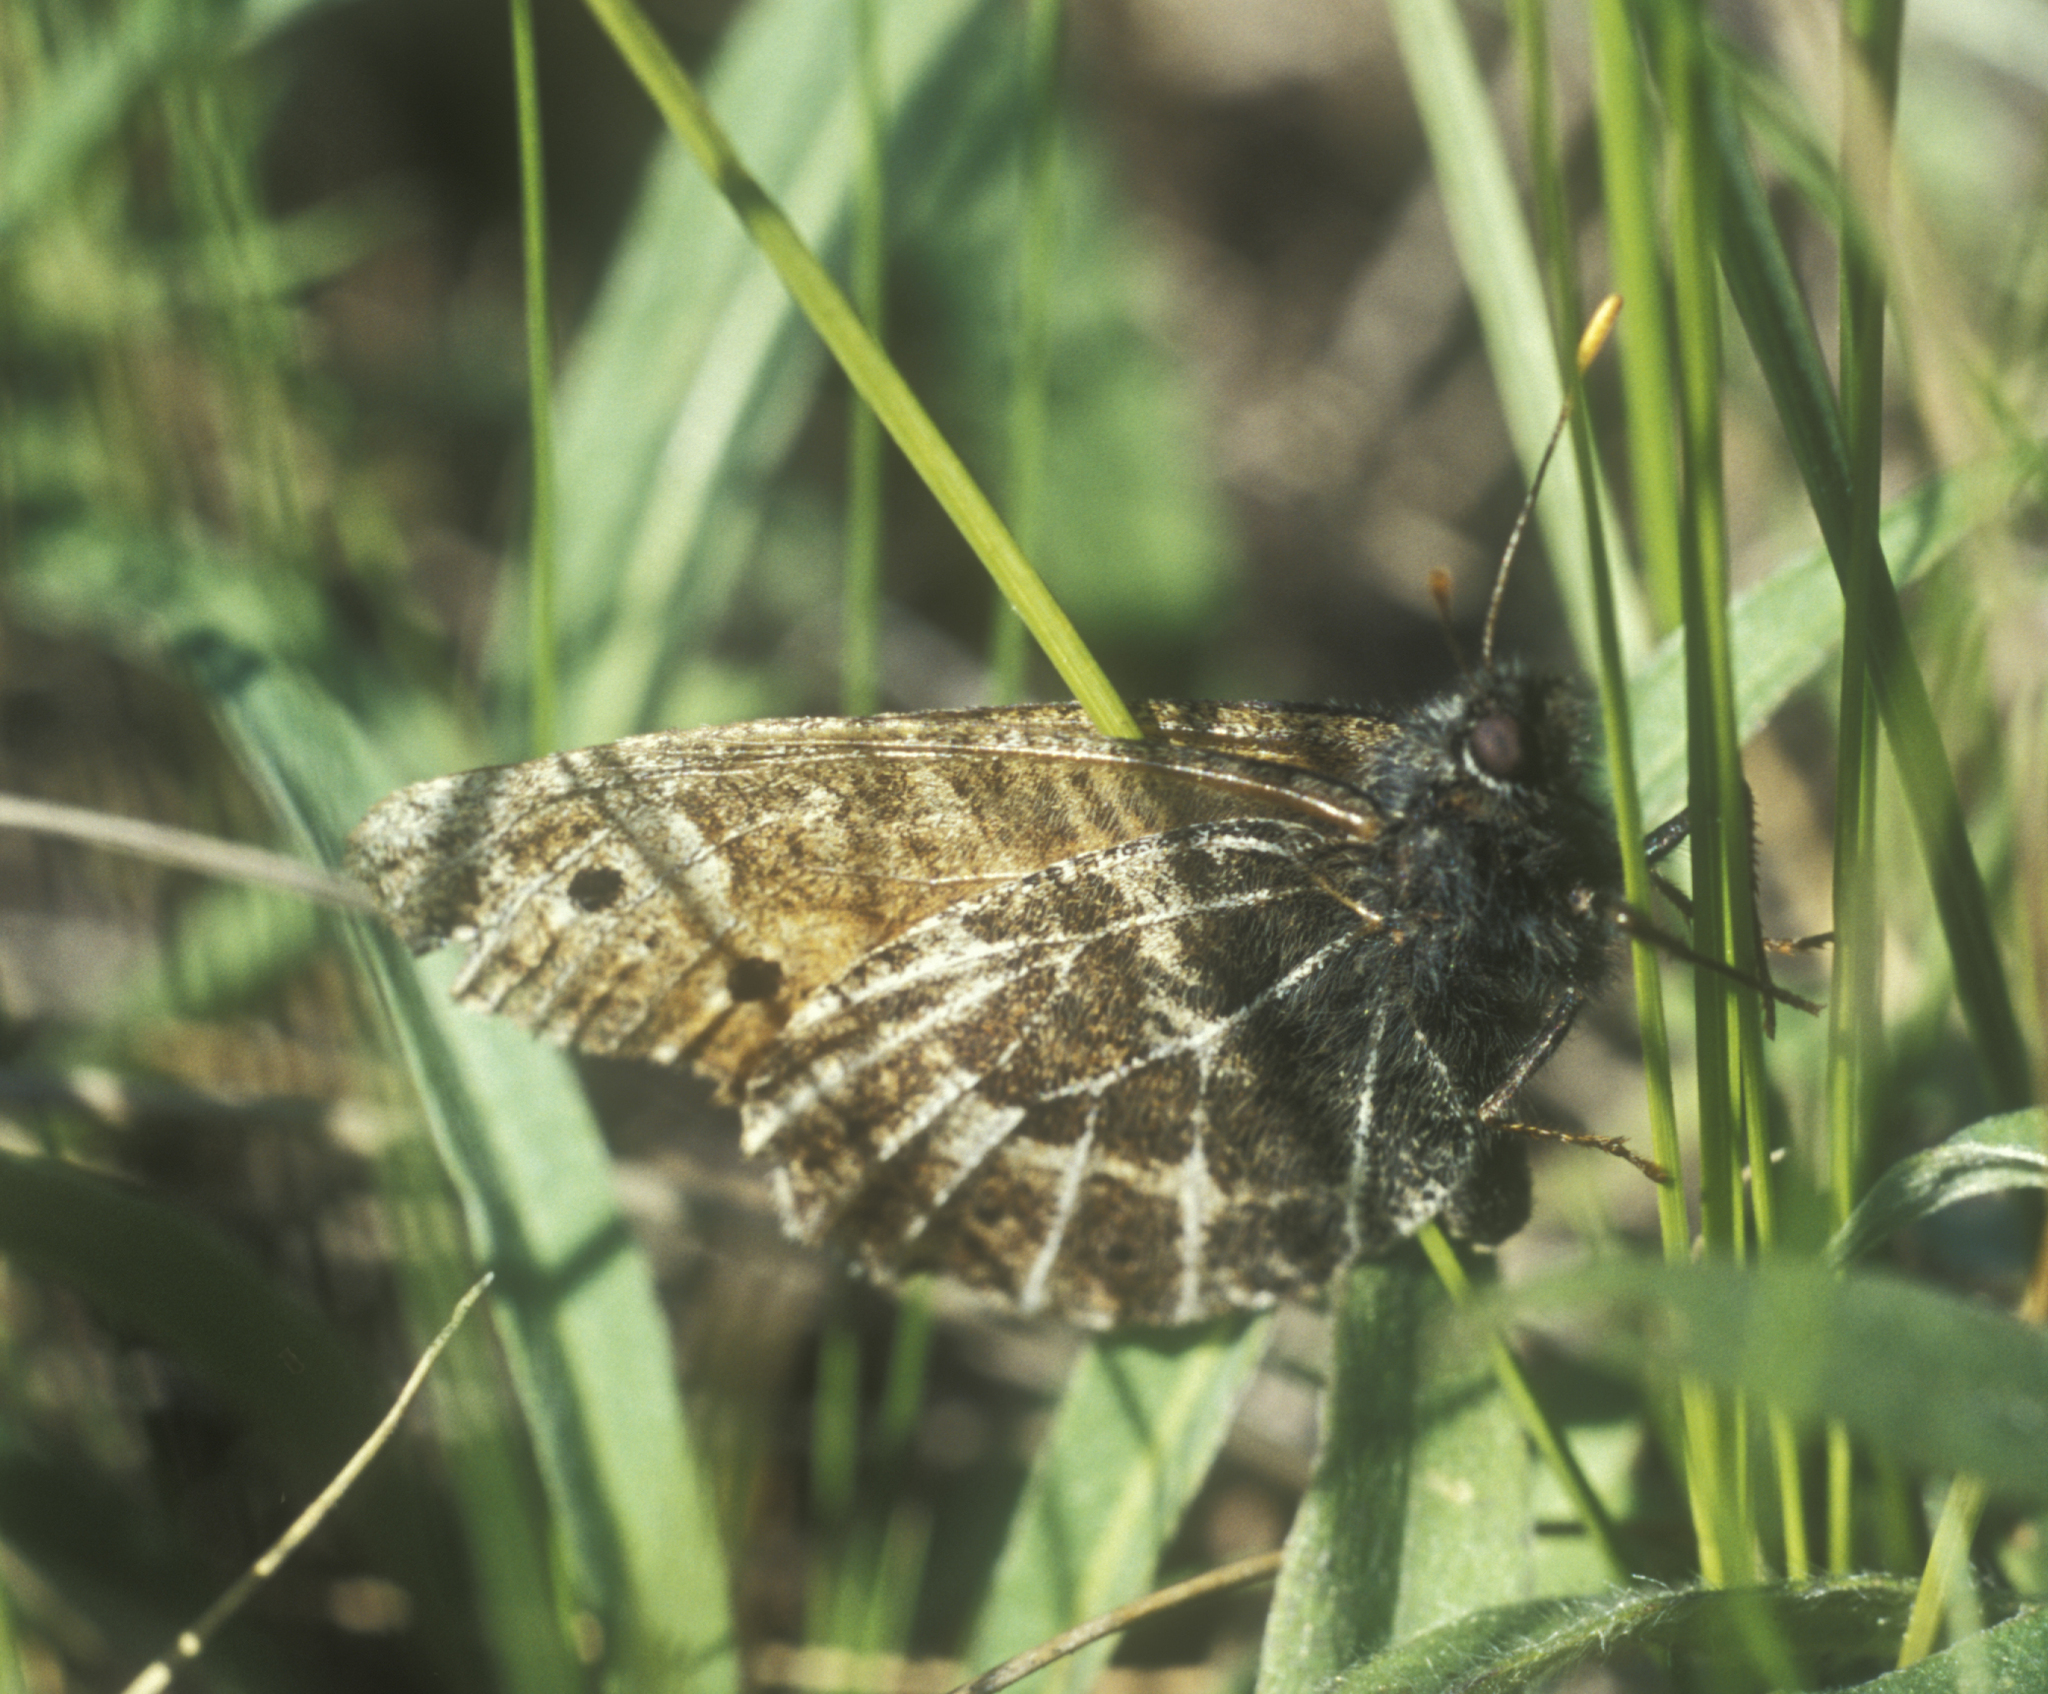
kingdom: Animalia
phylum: Arthropoda
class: Insecta
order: Lepidoptera
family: Nymphalidae
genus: Oeneis
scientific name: Oeneis tarpeia
